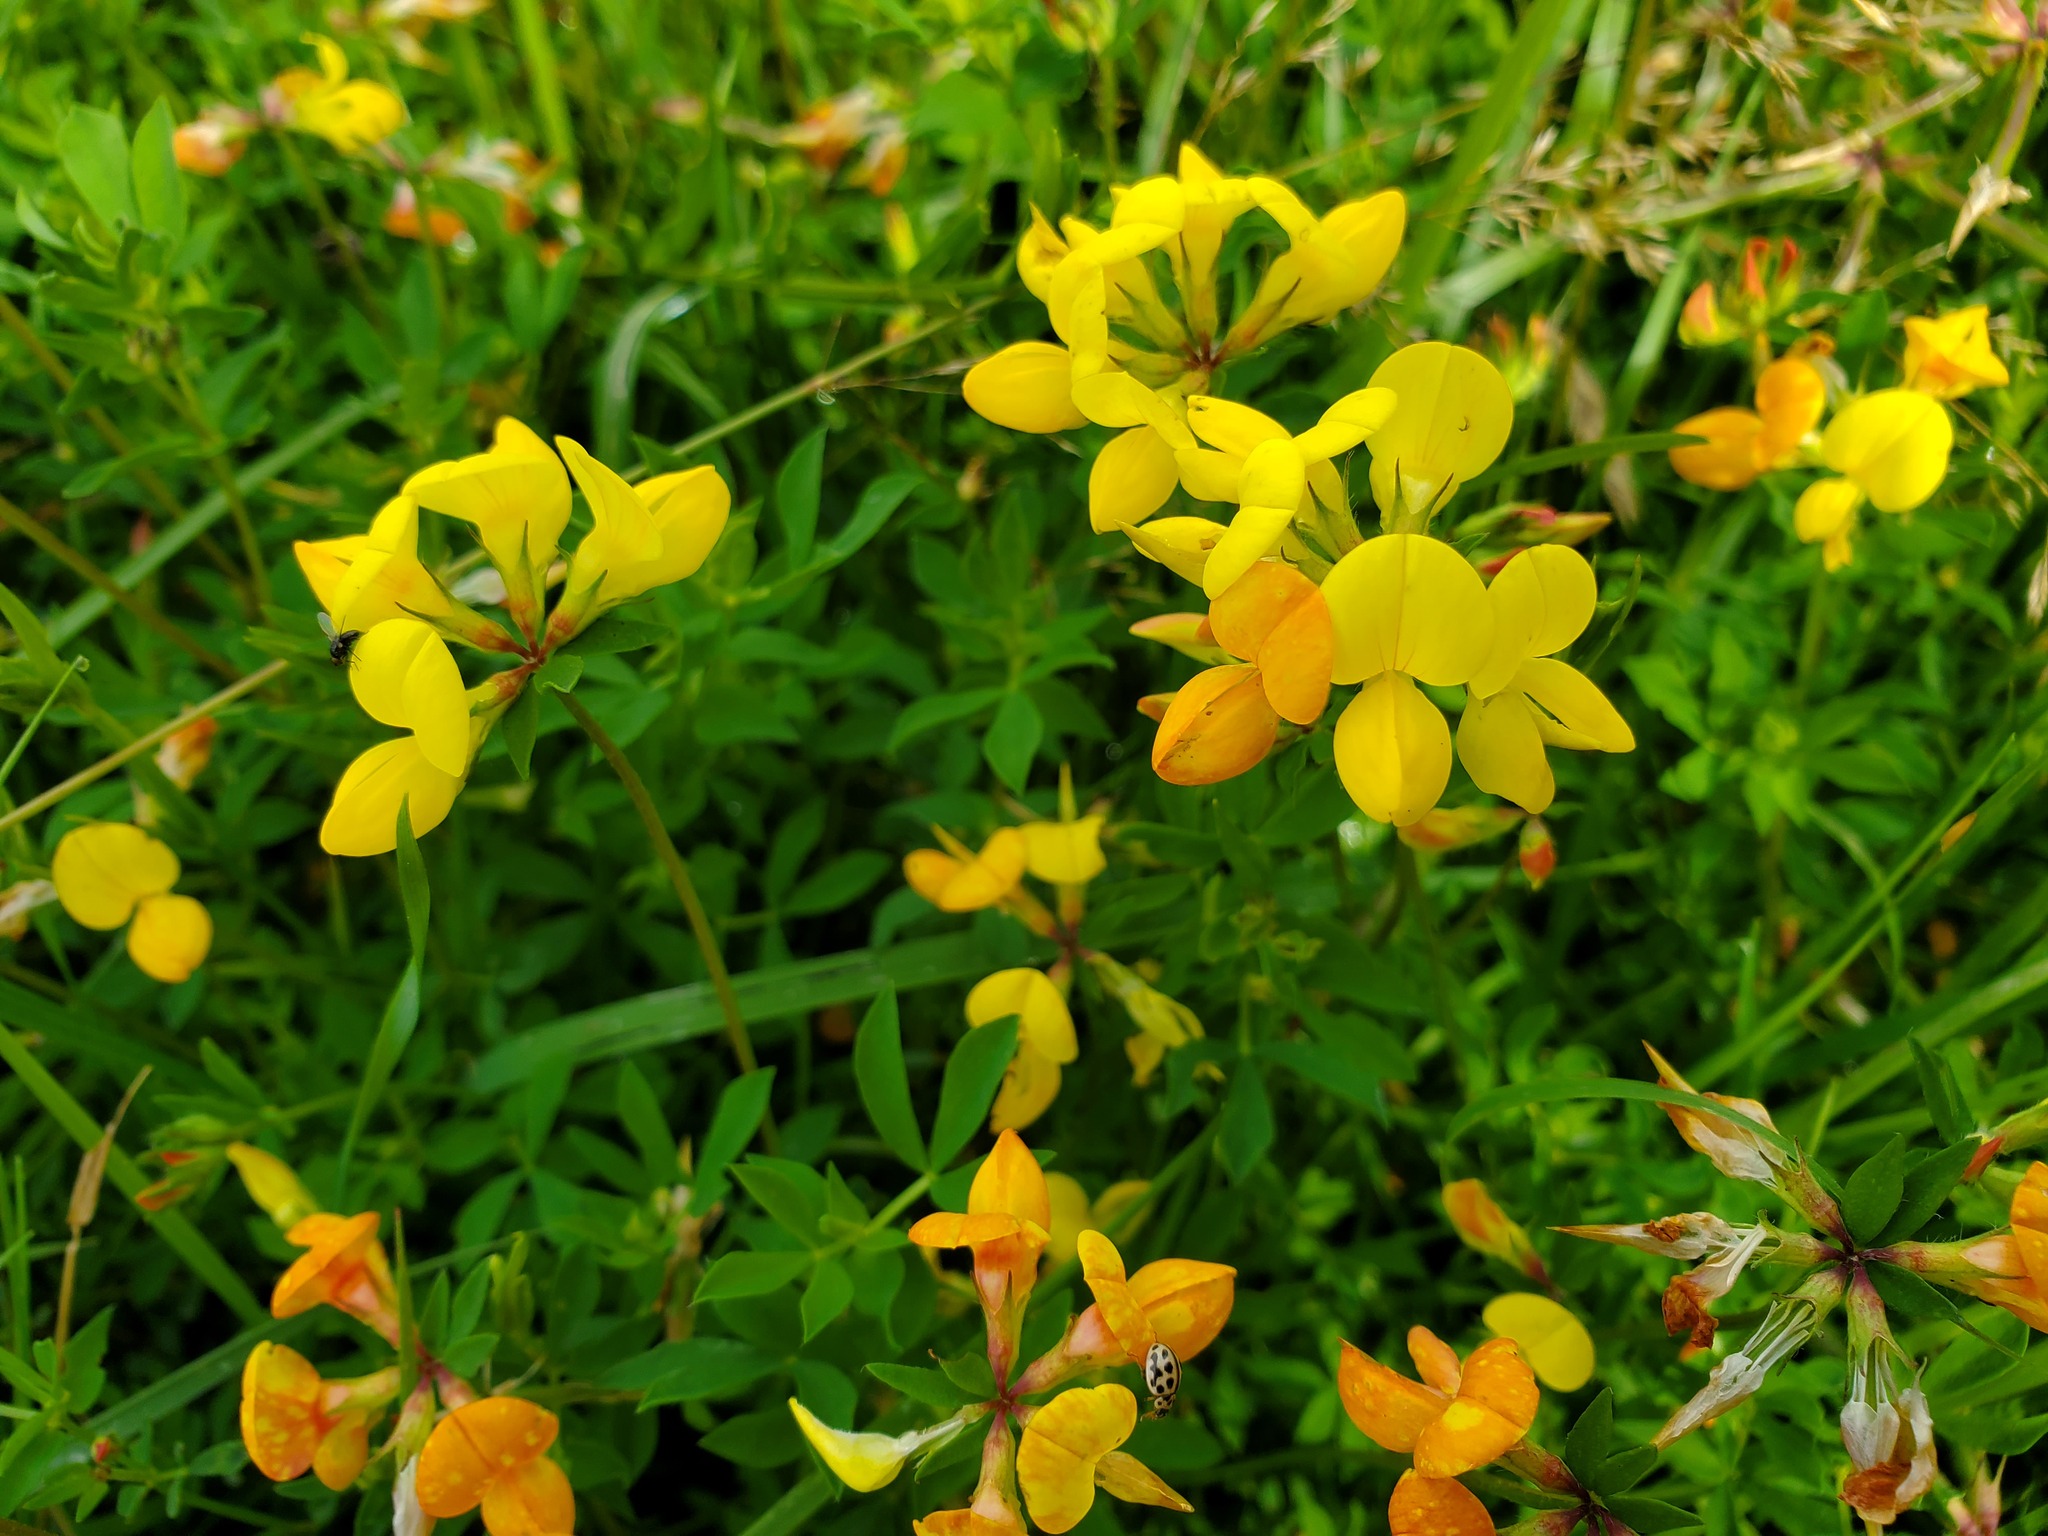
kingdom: Plantae
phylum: Tracheophyta
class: Magnoliopsida
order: Fabales
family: Fabaceae
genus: Lotus
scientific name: Lotus corniculatus
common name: Common bird's-foot-trefoil
